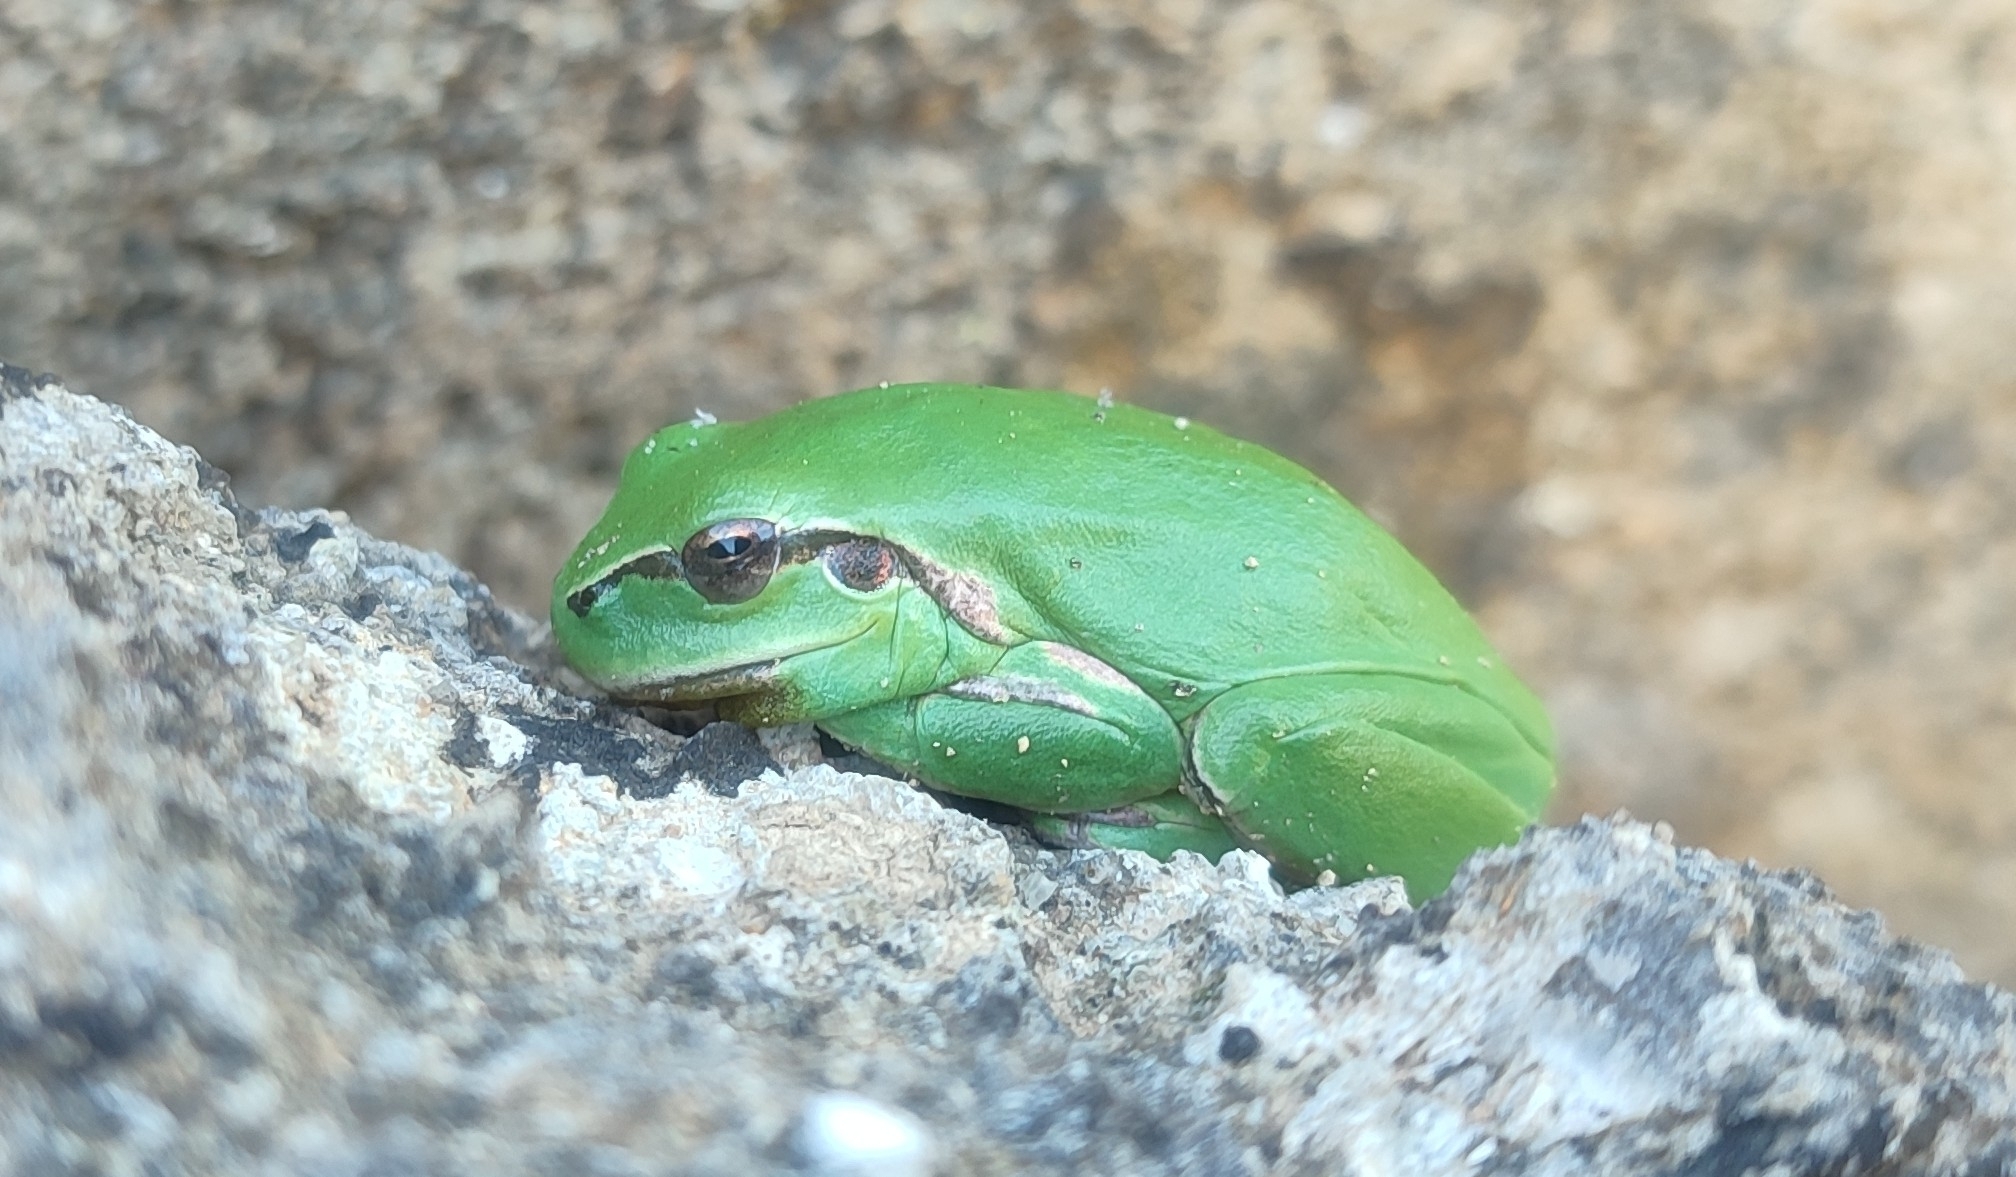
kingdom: Animalia
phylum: Chordata
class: Amphibia
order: Anura
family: Hylidae
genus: Hyla
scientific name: Hyla meridionalis
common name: Stripeless tree frog
